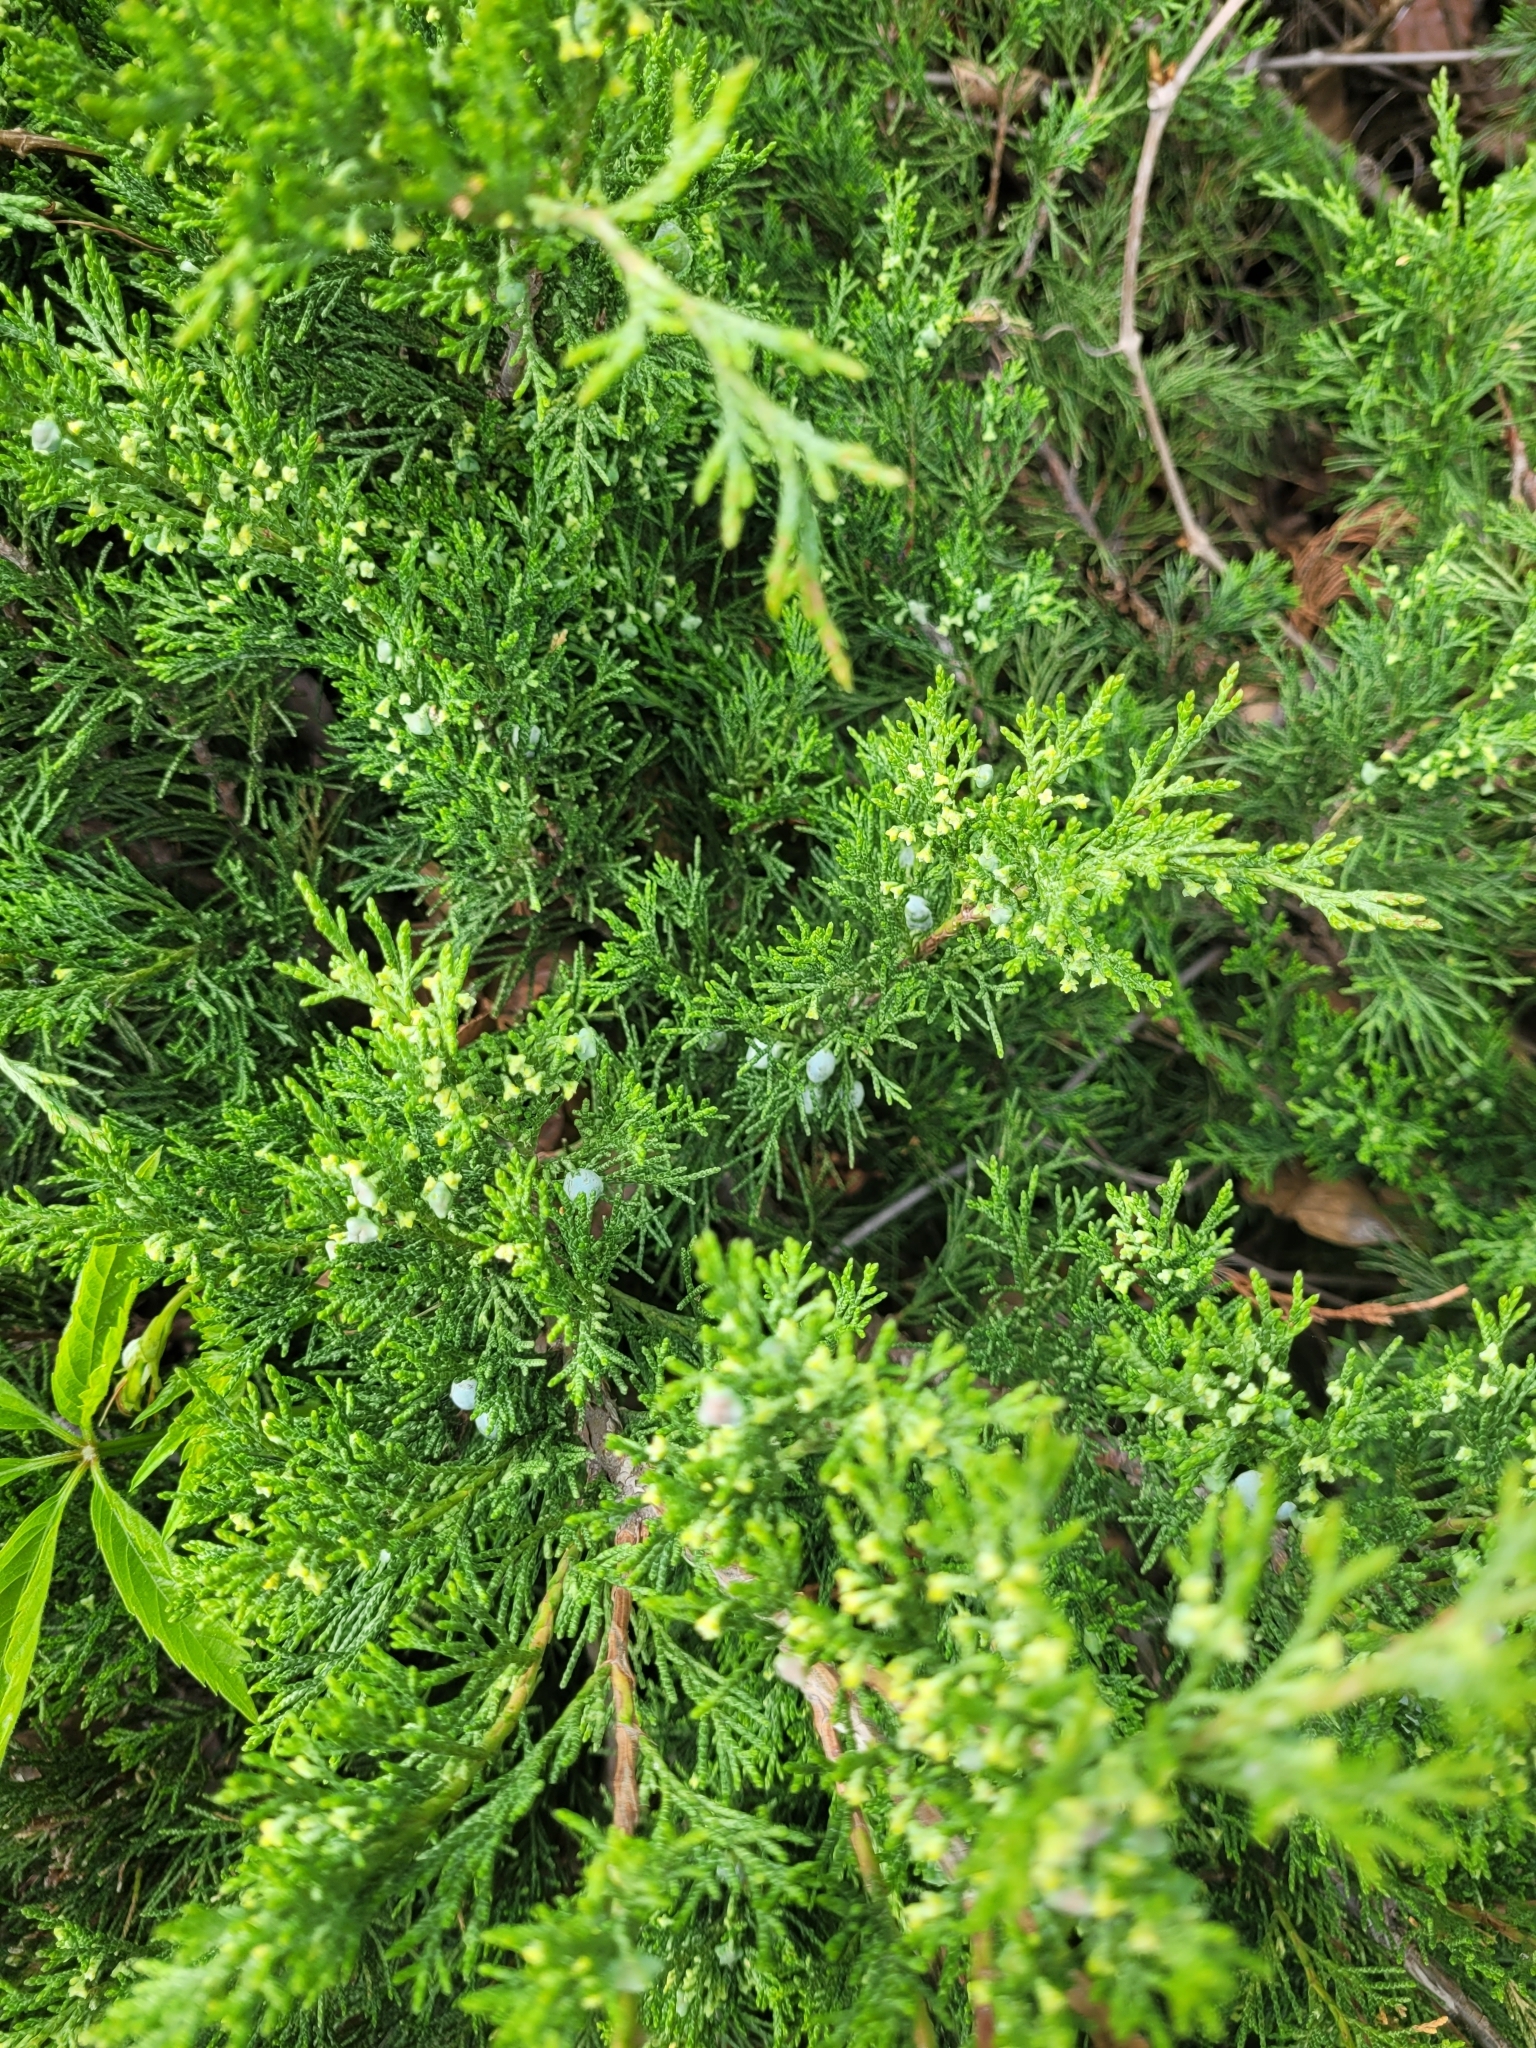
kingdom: Plantae
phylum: Tracheophyta
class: Pinopsida
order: Pinales
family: Cupressaceae
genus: Juniperus
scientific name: Juniperus horizontalis
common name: Creeping juniper
